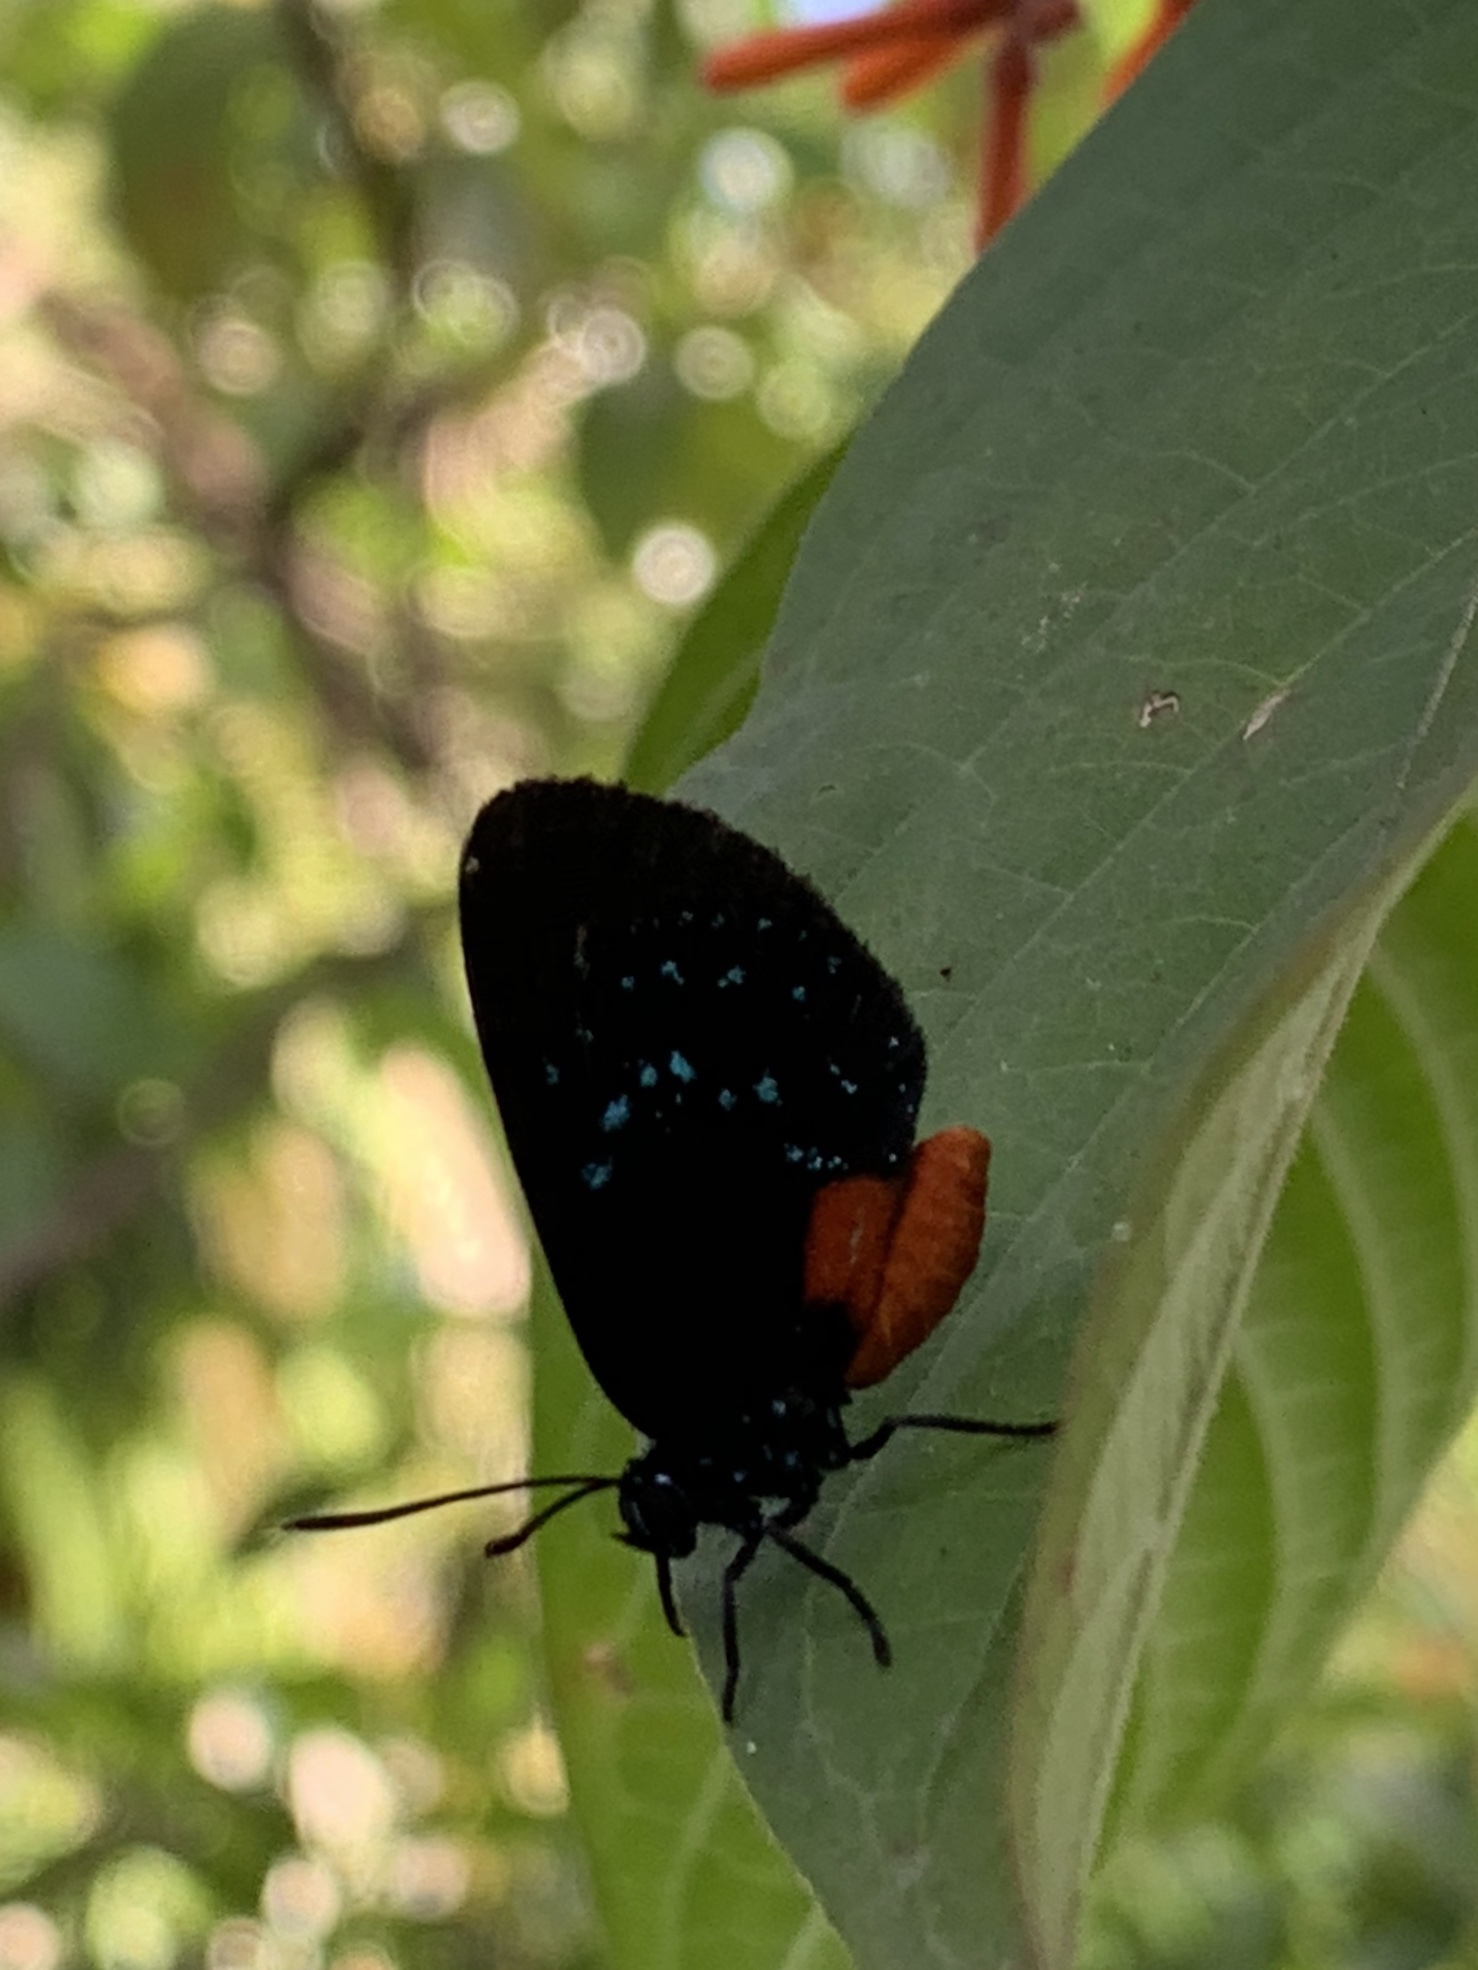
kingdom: Animalia
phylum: Arthropoda
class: Insecta
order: Lepidoptera
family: Lycaenidae
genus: Eumaeus
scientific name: Eumaeus atala
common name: Atala
